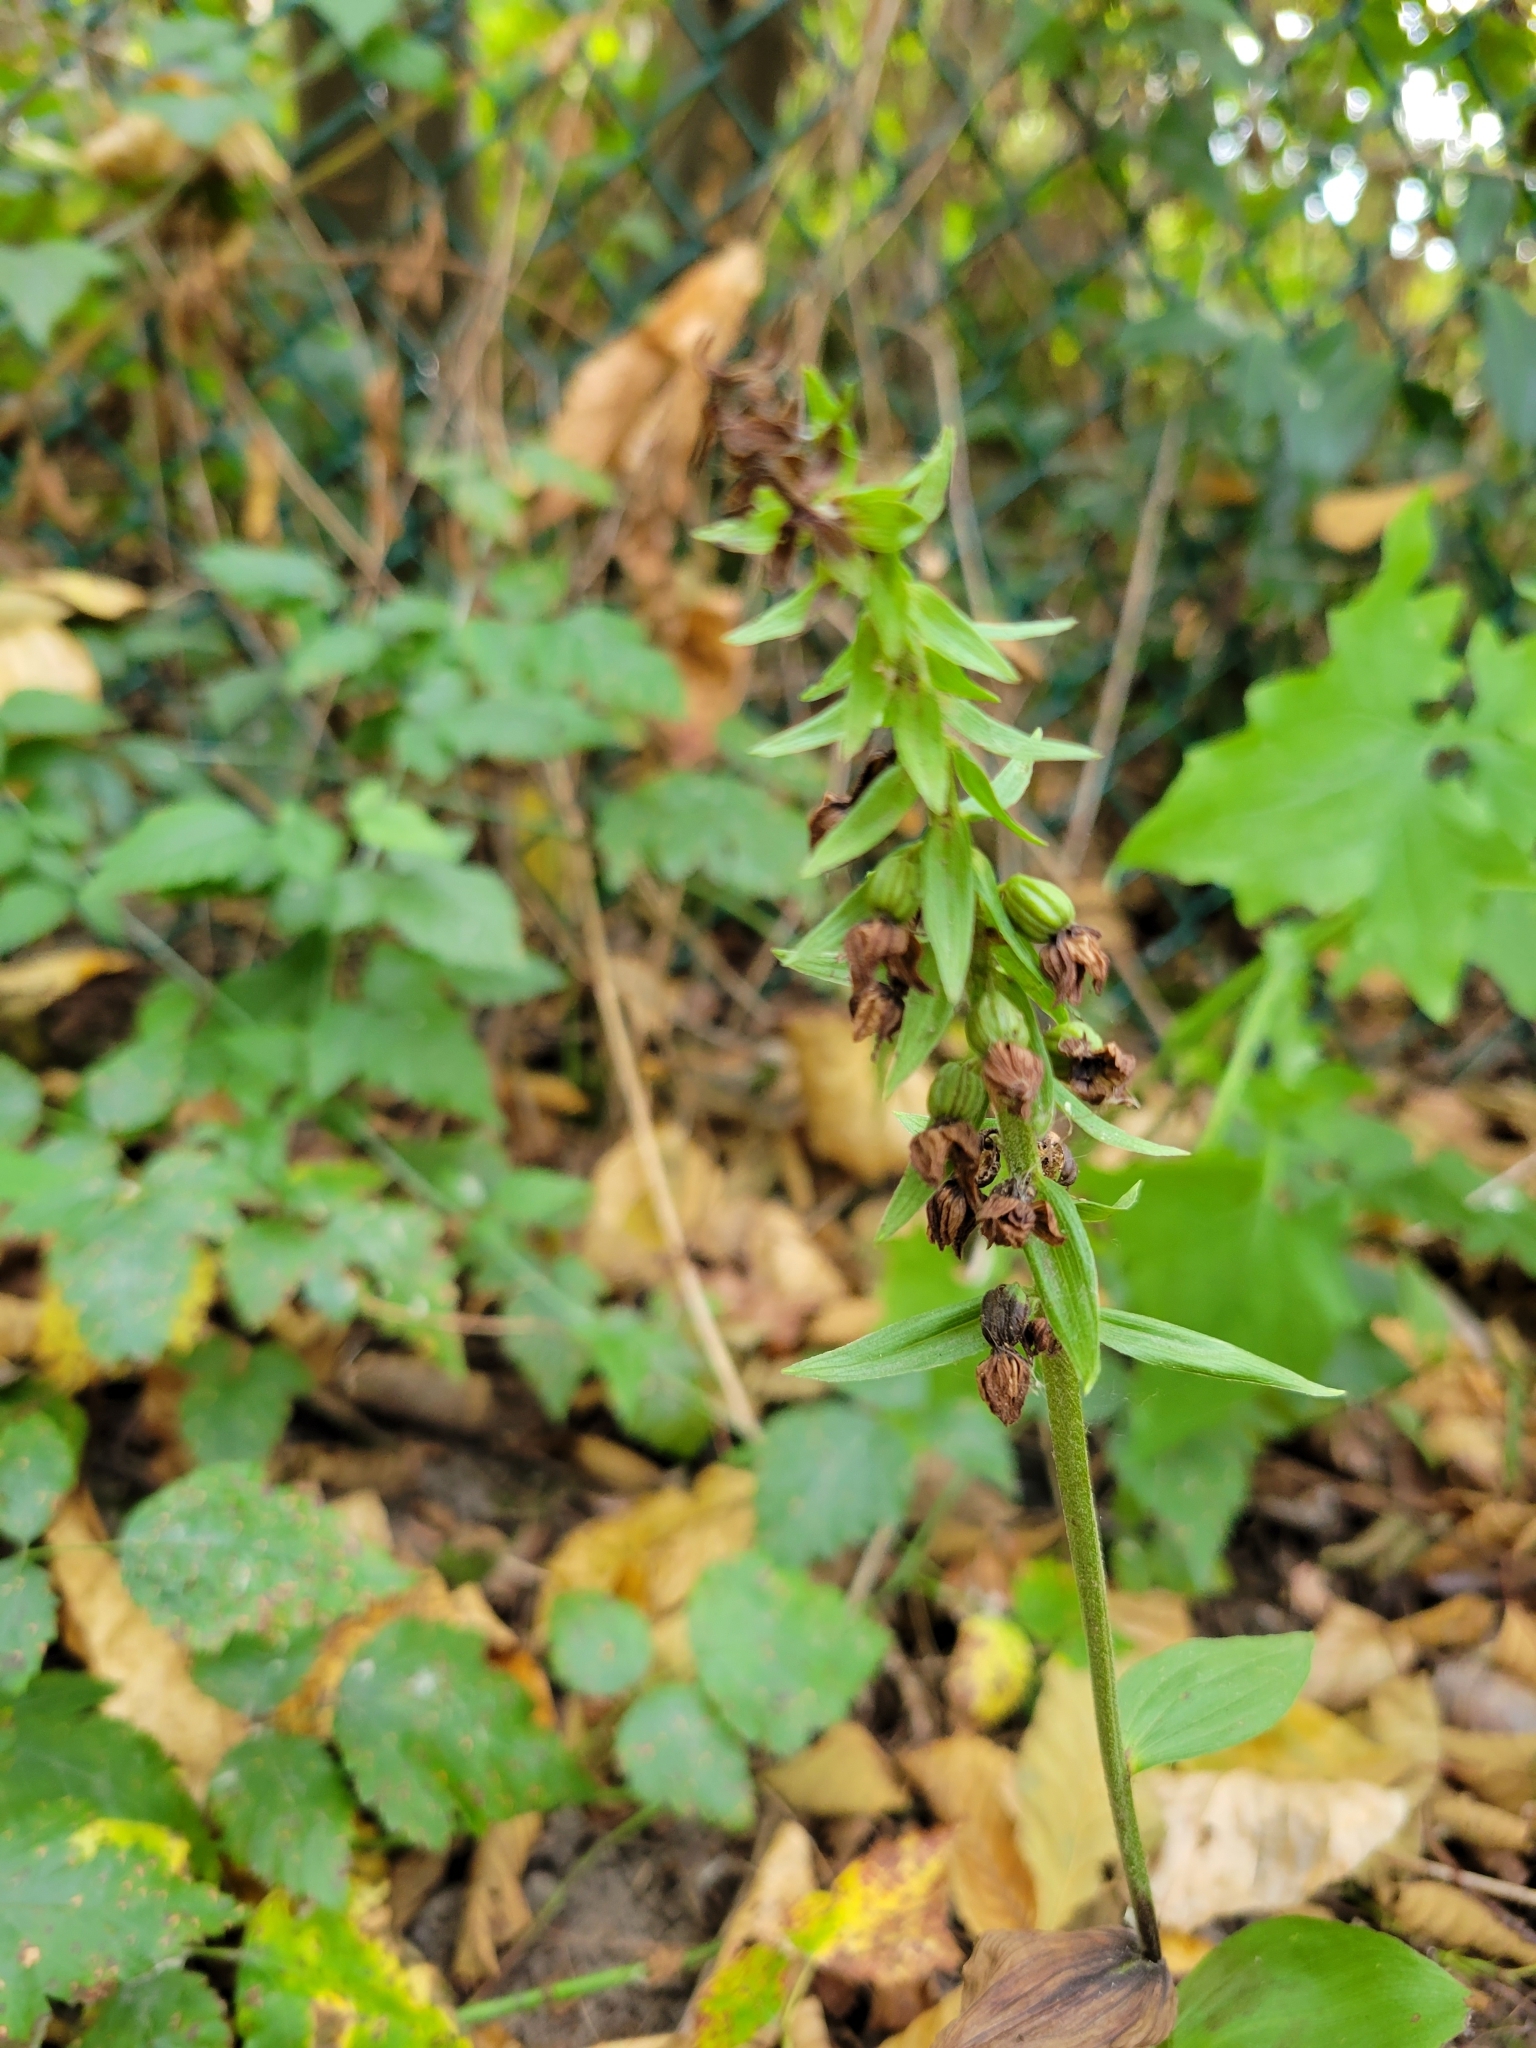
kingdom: Plantae
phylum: Tracheophyta
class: Liliopsida
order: Asparagales
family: Orchidaceae
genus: Epipactis
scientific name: Epipactis helleborine
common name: Broad-leaved helleborine
